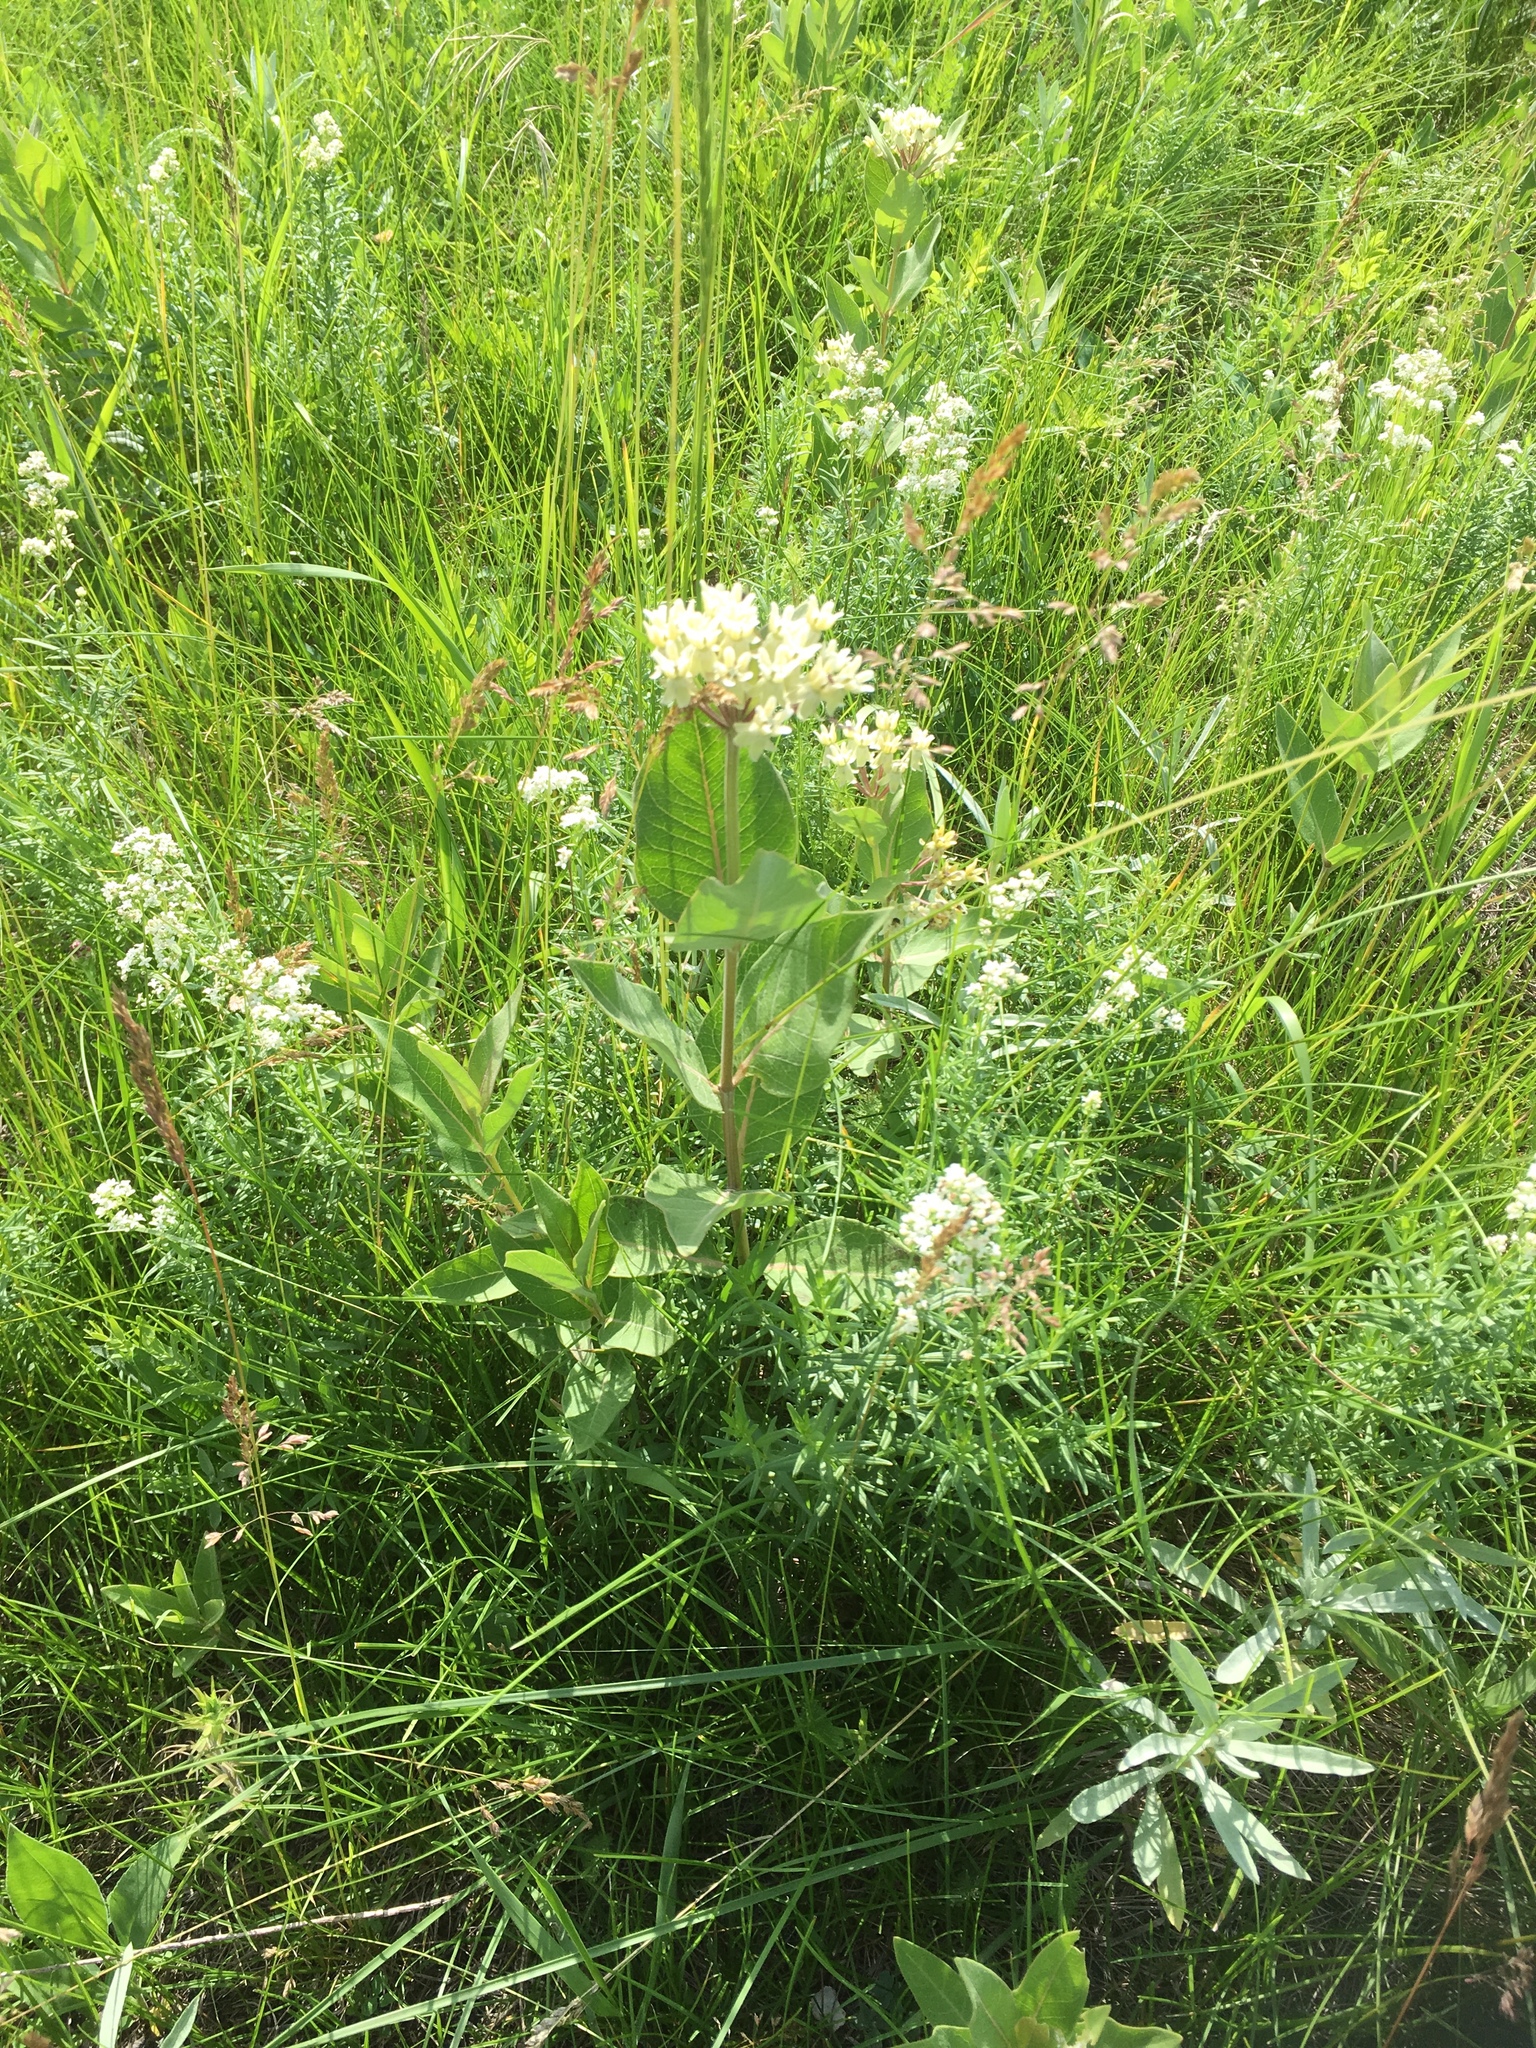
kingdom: Plantae
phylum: Tracheophyta
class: Magnoliopsida
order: Gentianales
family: Apocynaceae
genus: Asclepias
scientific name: Asclepias ovalifolia
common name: Dwarf milkweed
